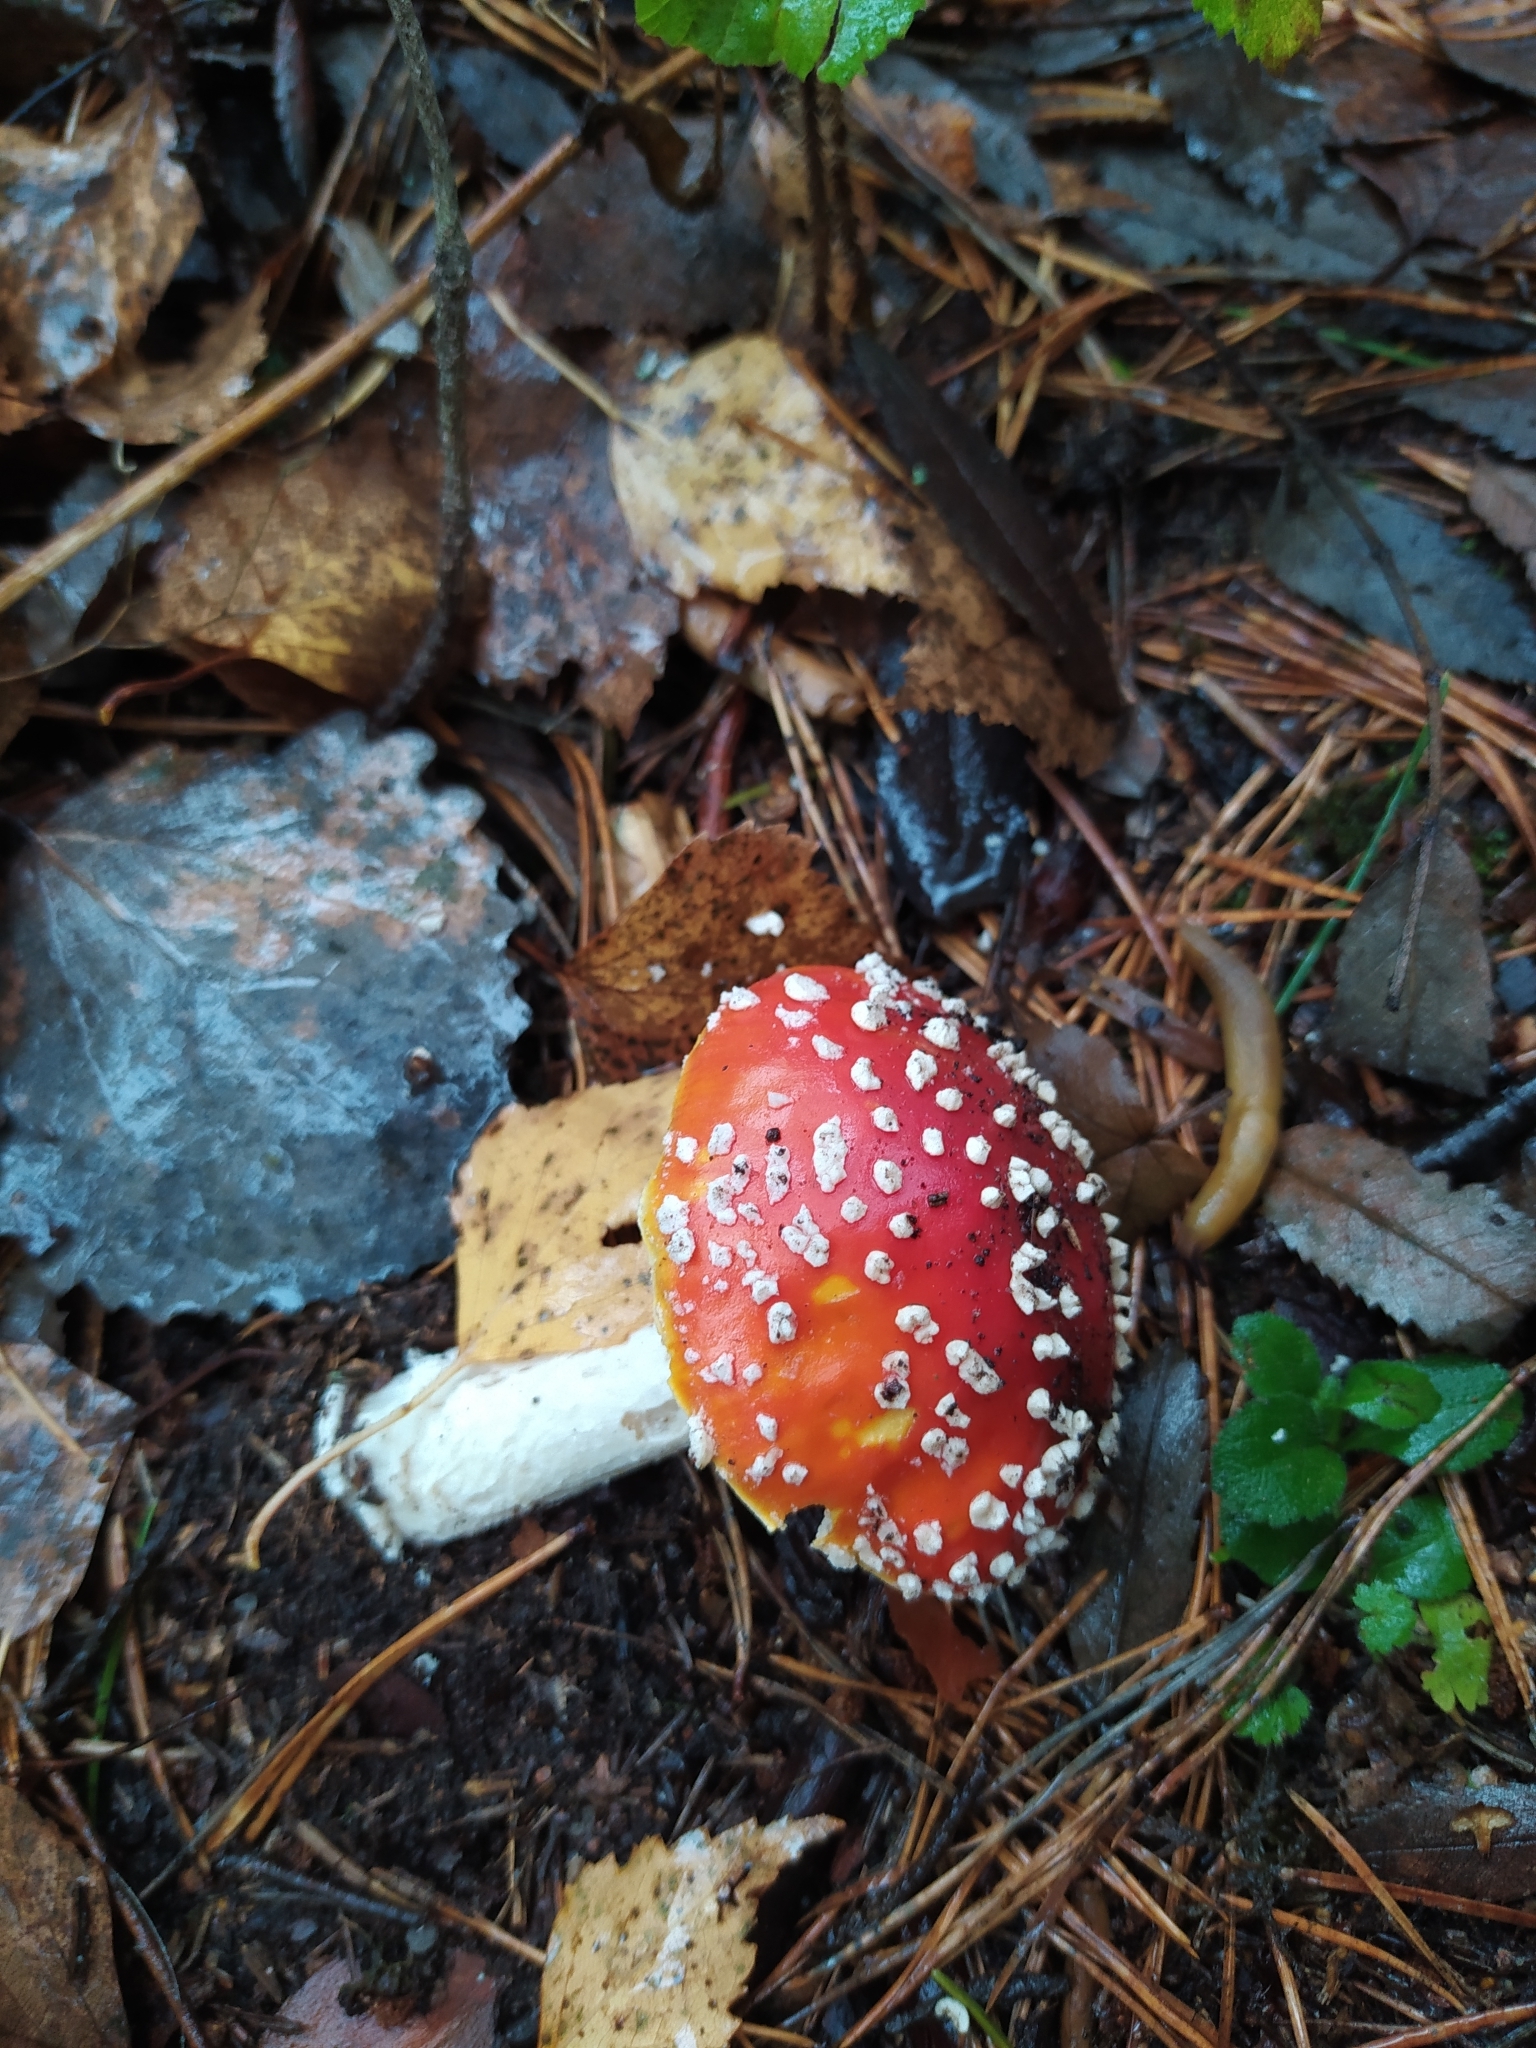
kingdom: Fungi
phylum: Basidiomycota
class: Agaricomycetes
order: Agaricales
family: Amanitaceae
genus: Amanita
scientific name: Amanita muscaria
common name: Fly agaric
